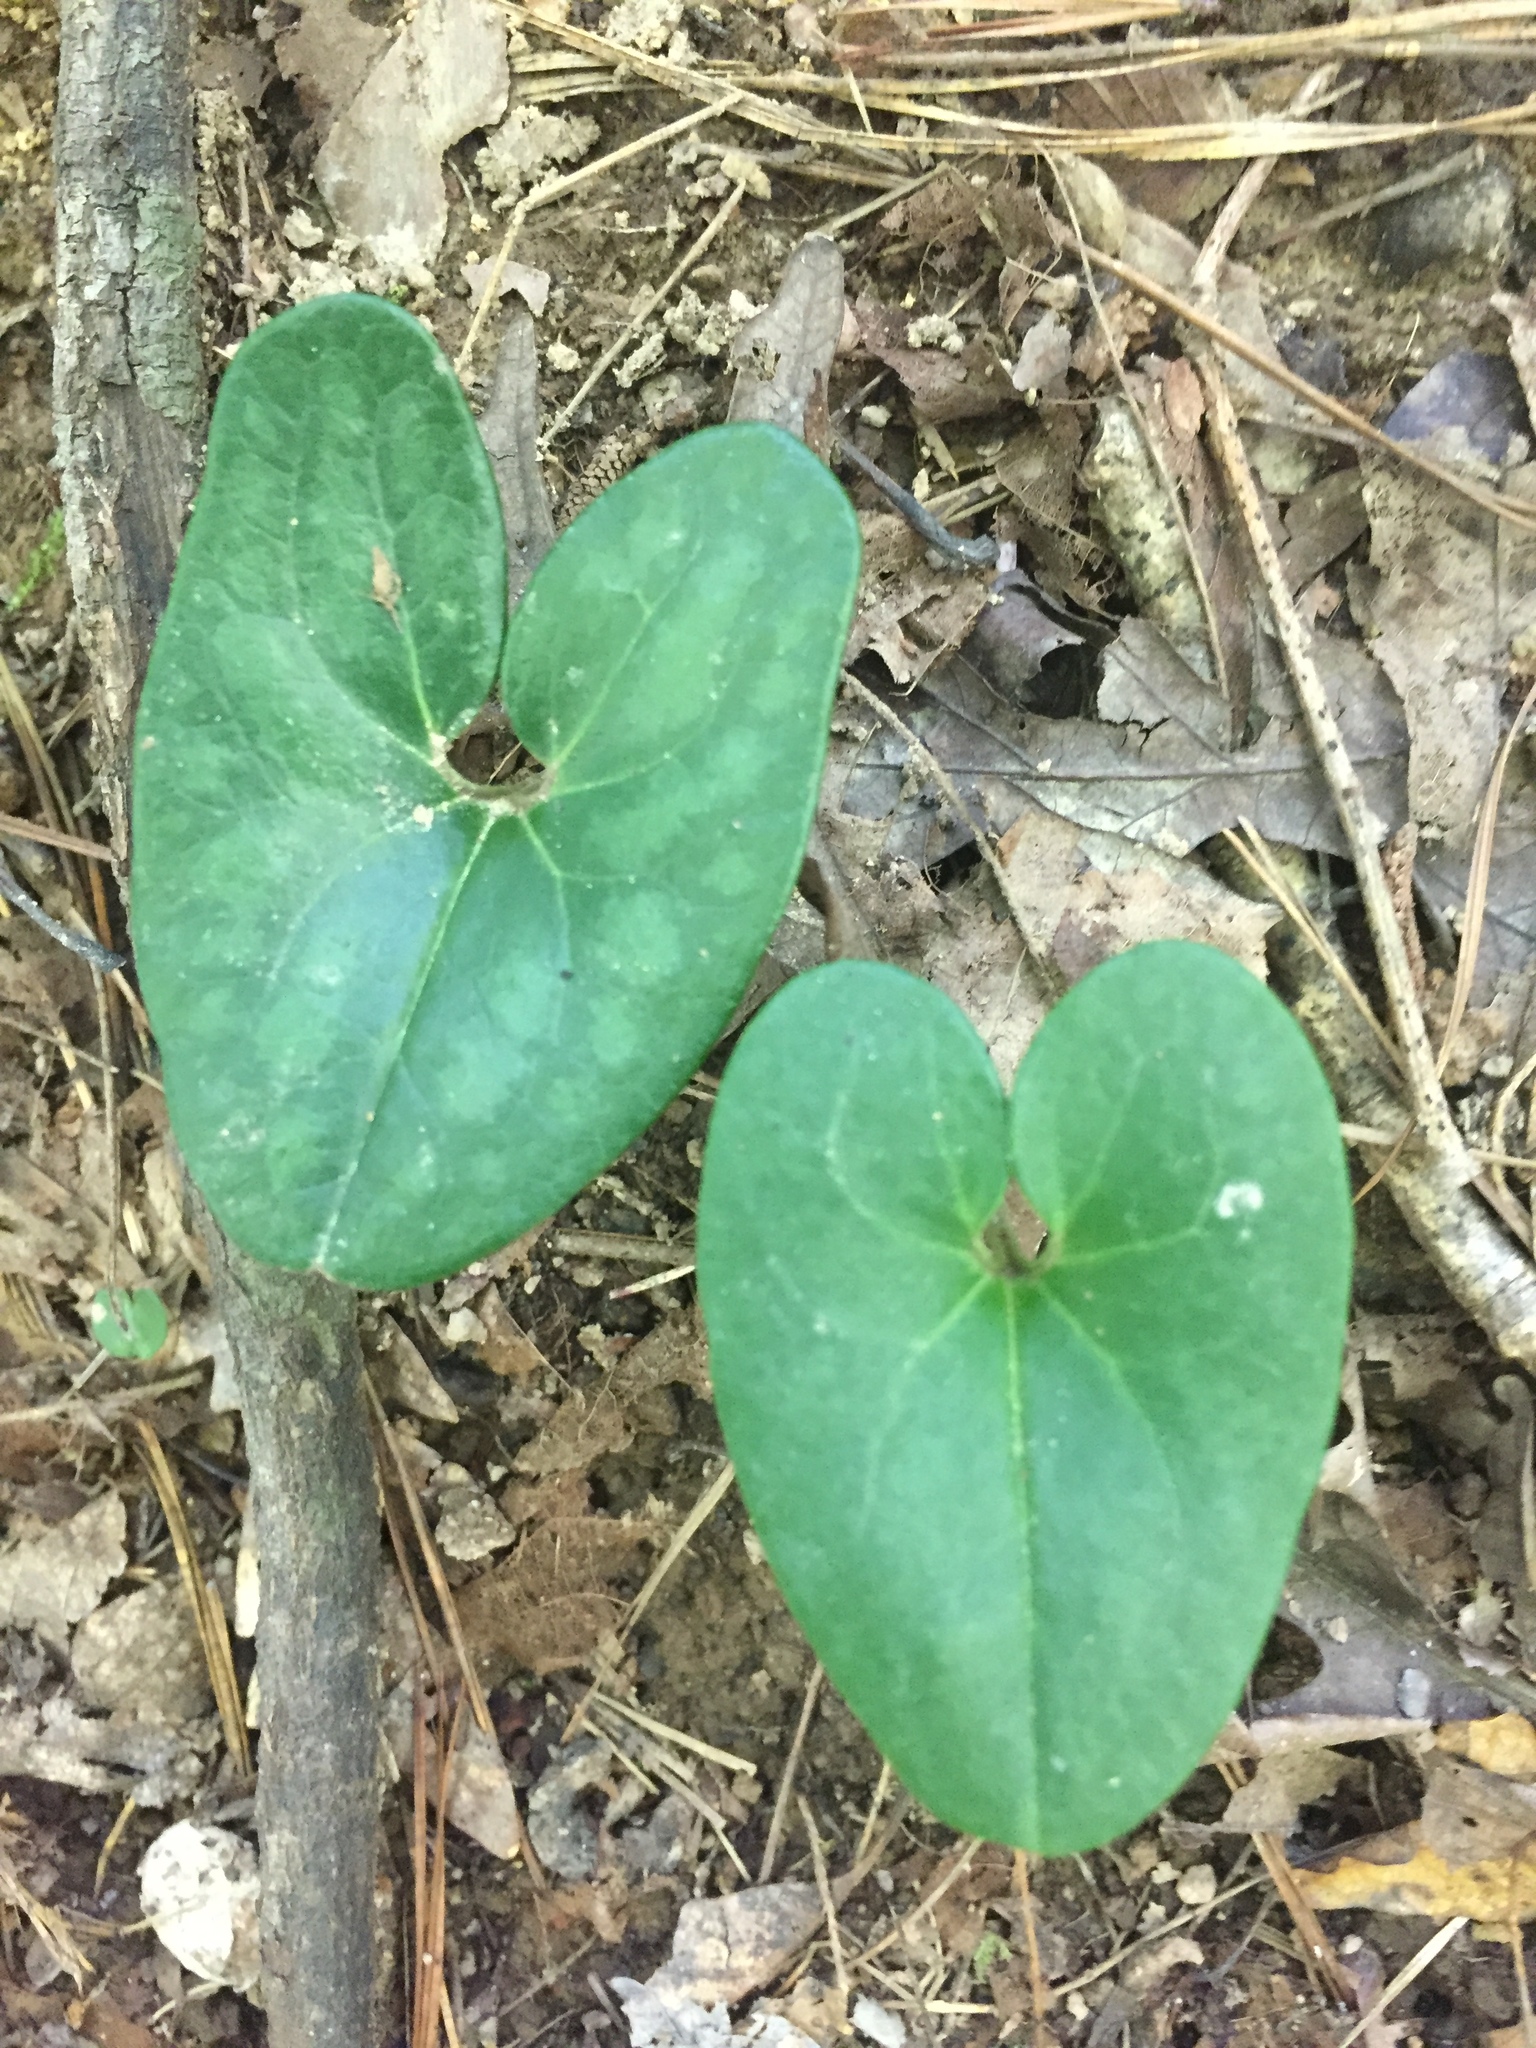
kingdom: Plantae
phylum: Tracheophyta
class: Magnoliopsida
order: Piperales
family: Aristolochiaceae
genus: Hexastylis
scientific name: Hexastylis arifolia
